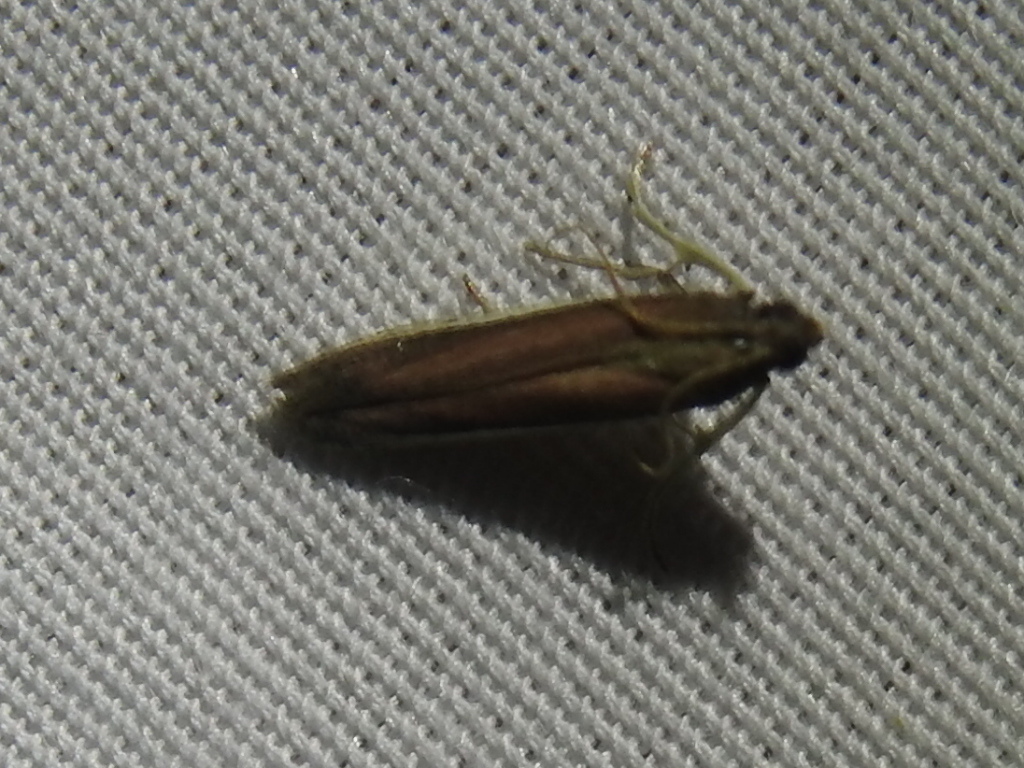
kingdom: Animalia
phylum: Arthropoda
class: Insecta
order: Lepidoptera
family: Pyralidae
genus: Tampa
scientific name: Tampa dimediatella
